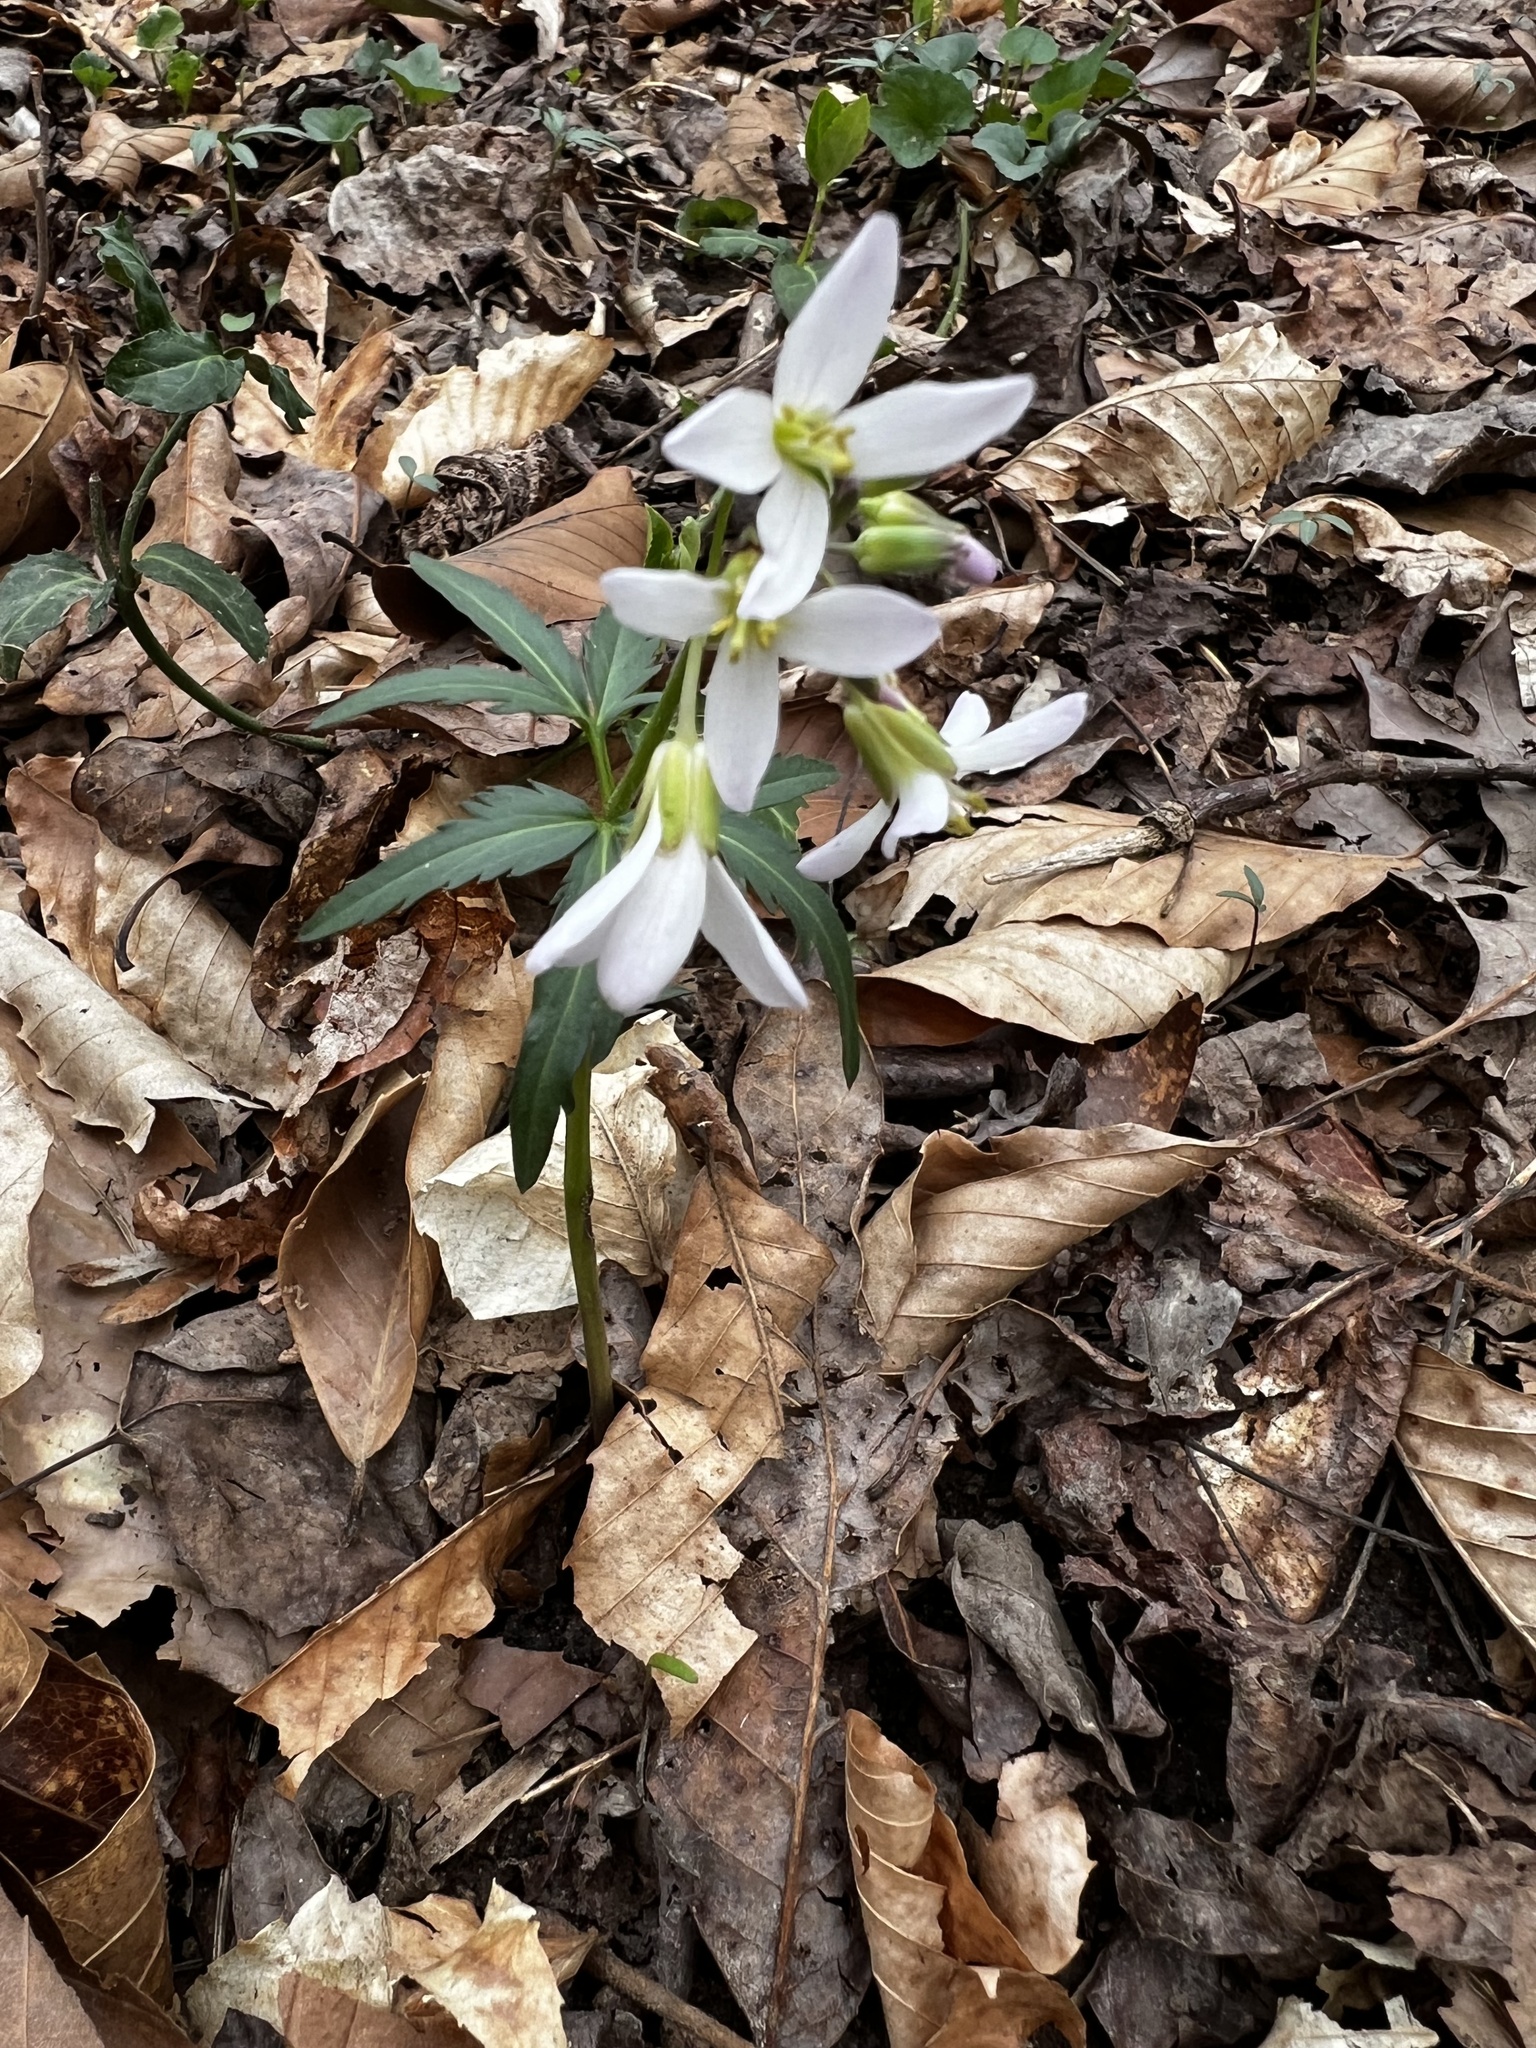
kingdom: Plantae
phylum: Tracheophyta
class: Magnoliopsida
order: Brassicales
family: Brassicaceae
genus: Cardamine
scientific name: Cardamine concatenata
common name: Cut-leaf toothcup
